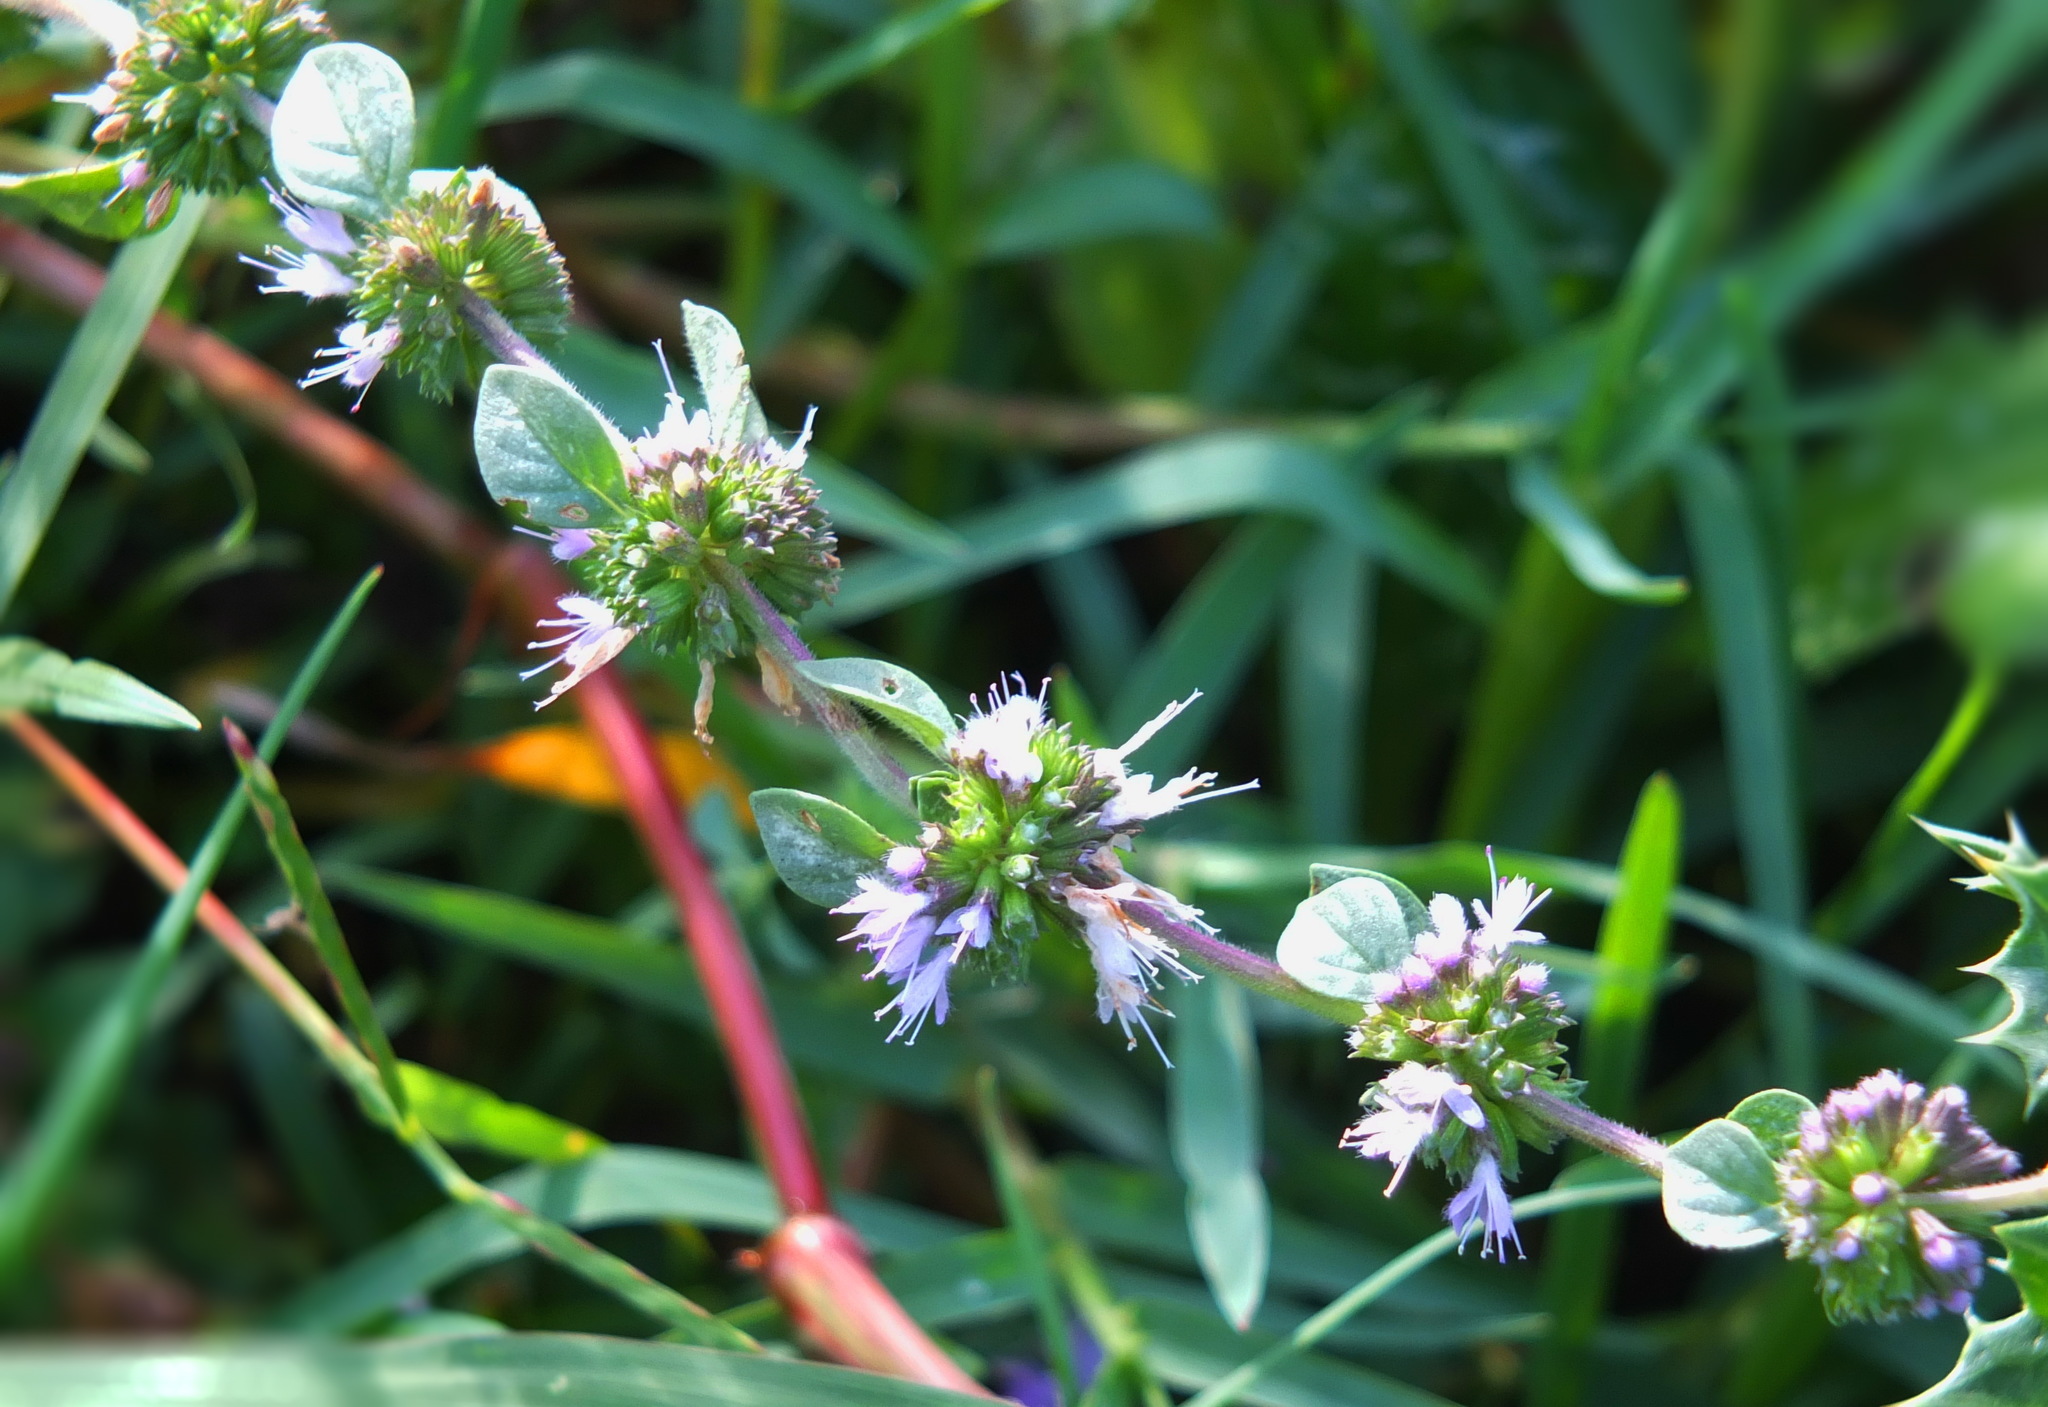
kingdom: Plantae
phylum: Tracheophyta
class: Magnoliopsida
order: Lamiales
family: Lamiaceae
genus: Mentha
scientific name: Mentha pulegium
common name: Pennyroyal
